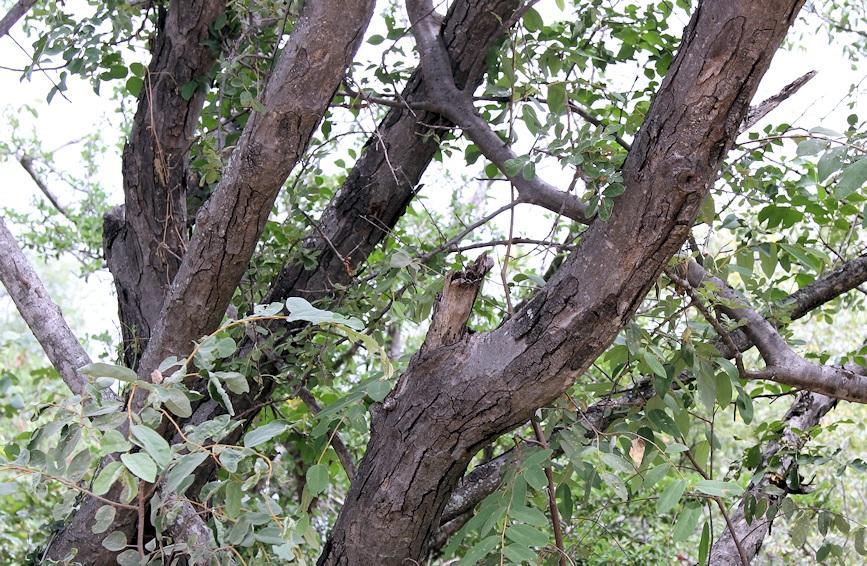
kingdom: Plantae
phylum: Tracheophyta
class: Magnoliopsida
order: Sapindales
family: Anacardiaceae
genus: Lannea
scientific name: Lannea schweinfurthii
